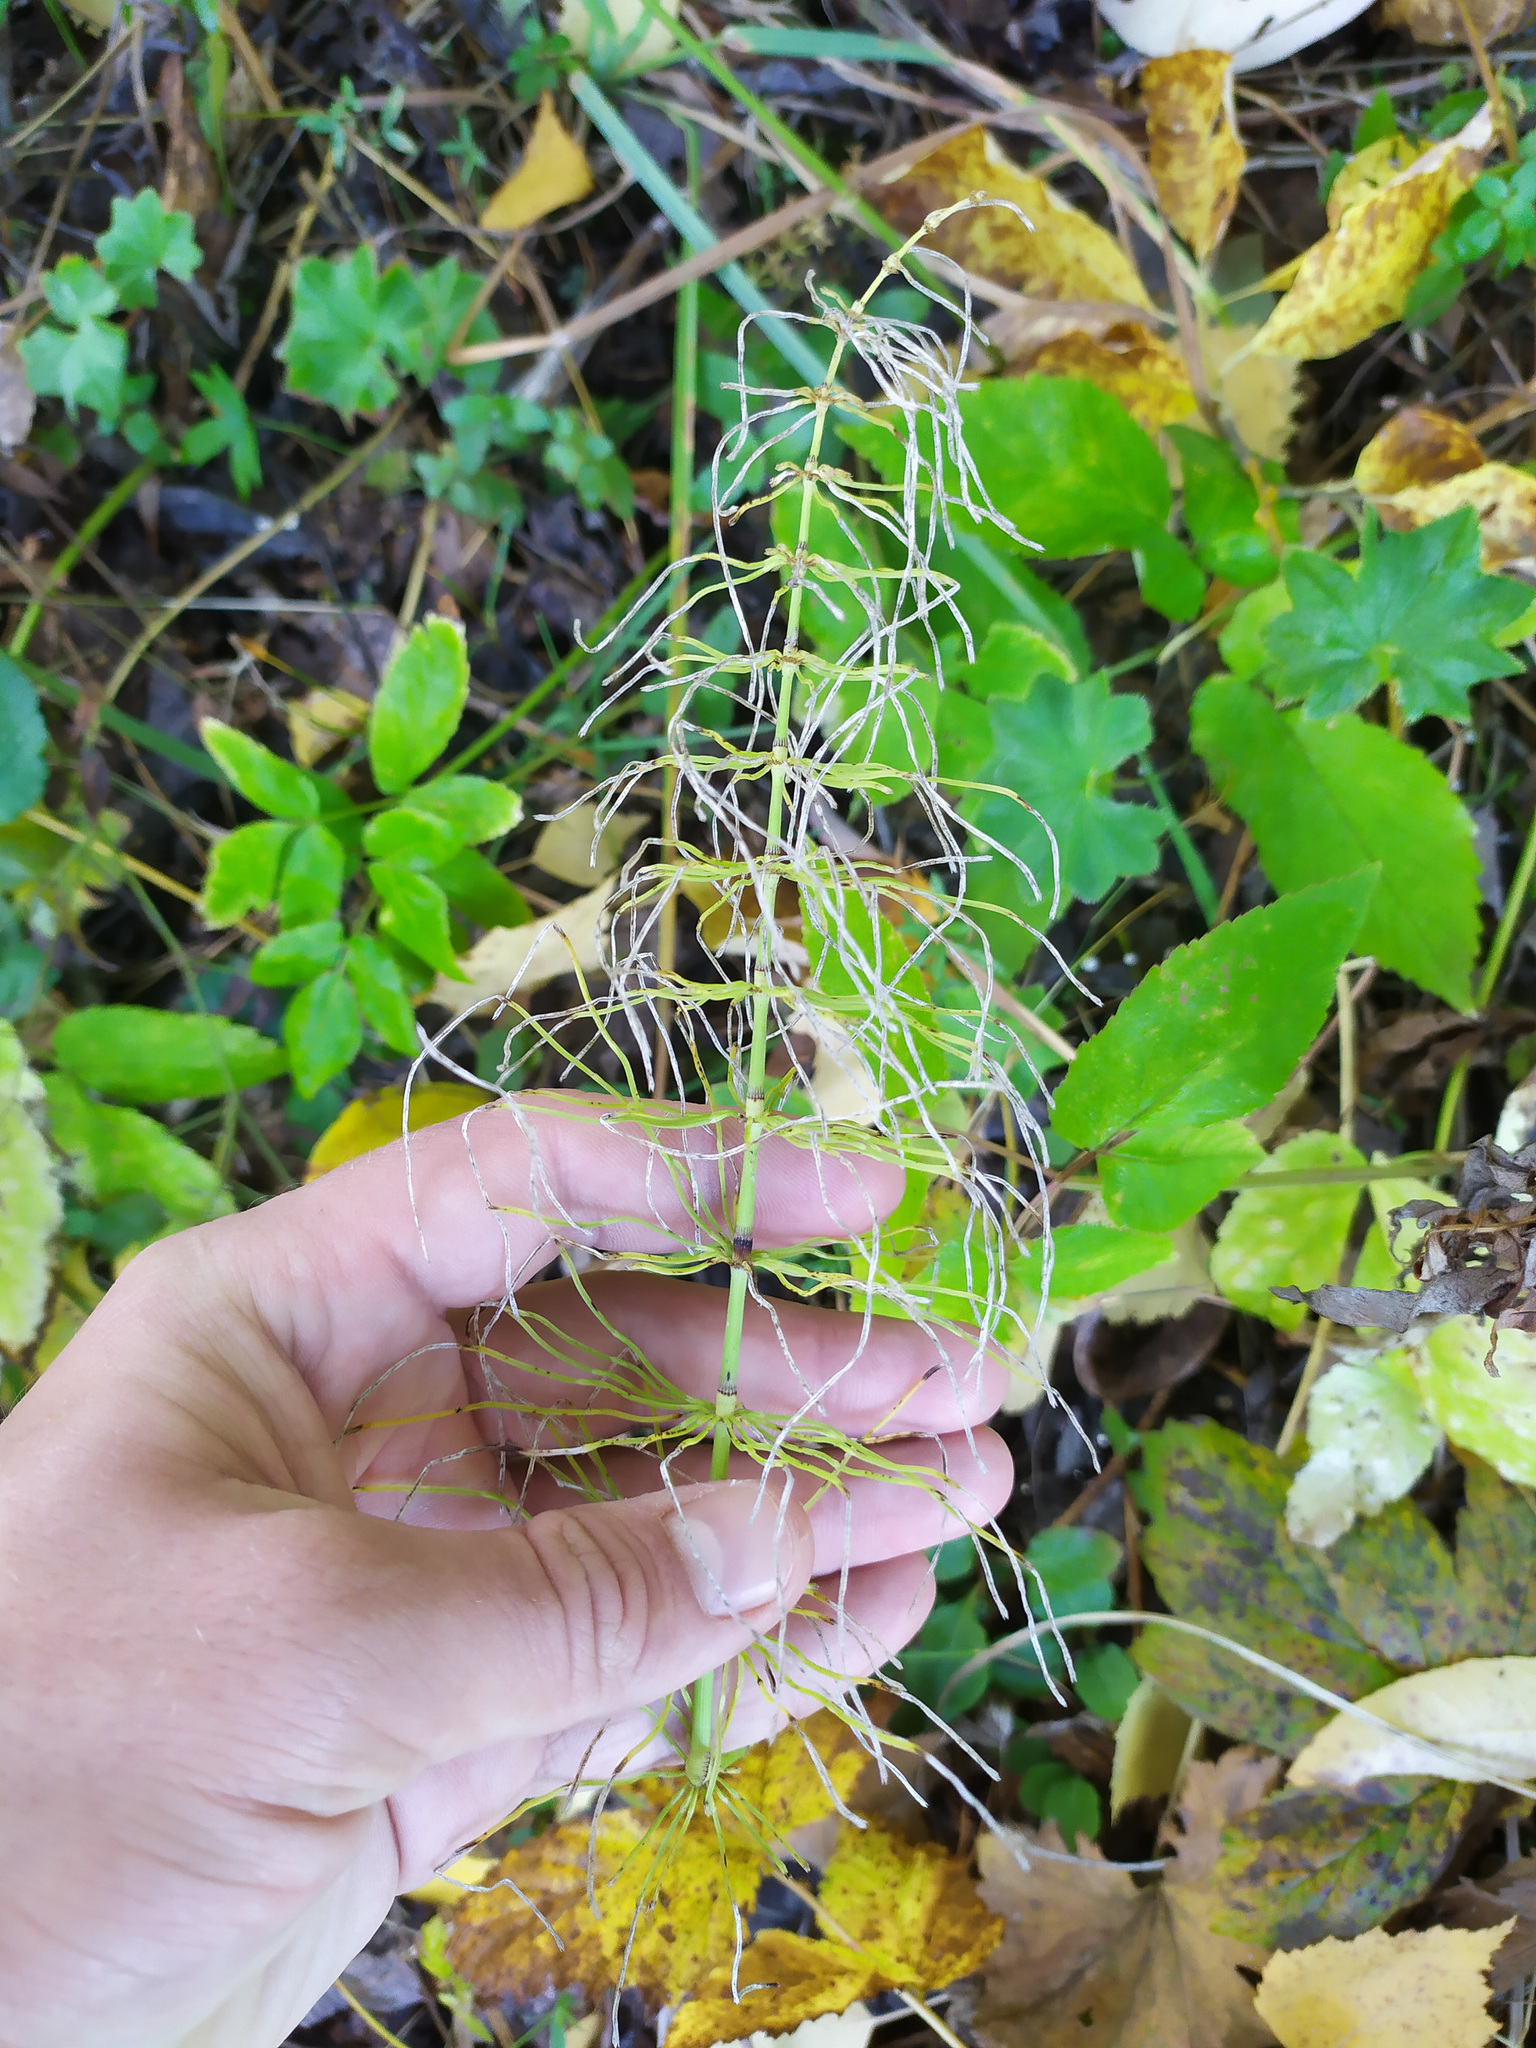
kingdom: Plantae
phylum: Tracheophyta
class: Polypodiopsida
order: Equisetales
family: Equisetaceae
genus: Equisetum
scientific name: Equisetum pratense
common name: Meadow horsetail
